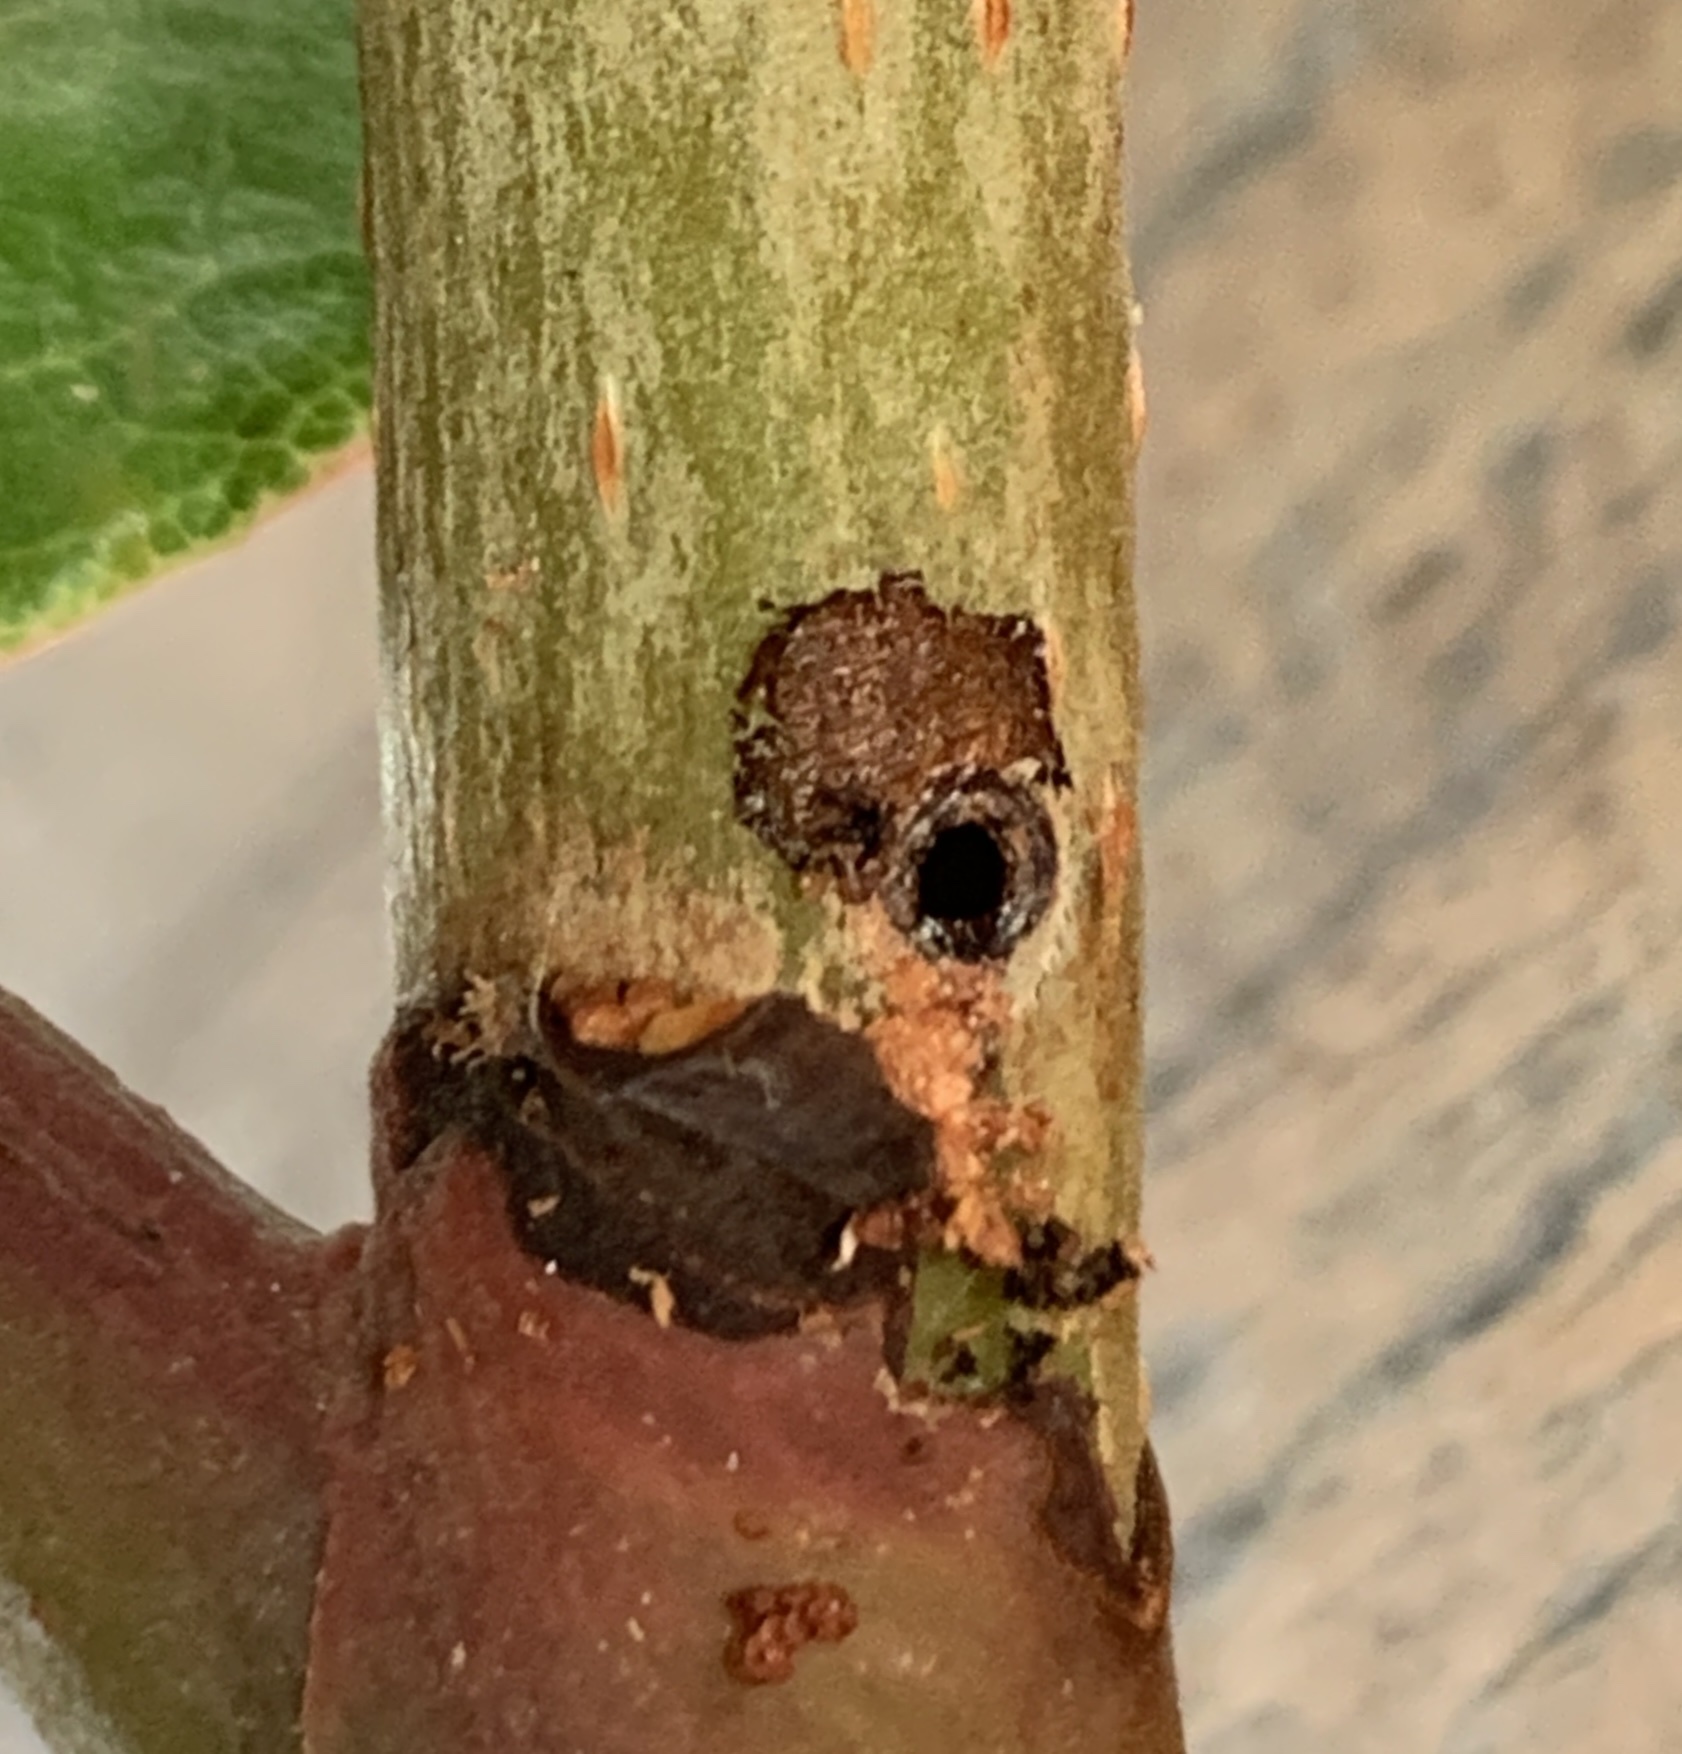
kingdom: Animalia
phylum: Arthropoda
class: Insecta
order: Lepidoptera
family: Thyrididae
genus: Hexeris
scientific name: Hexeris enhydris
